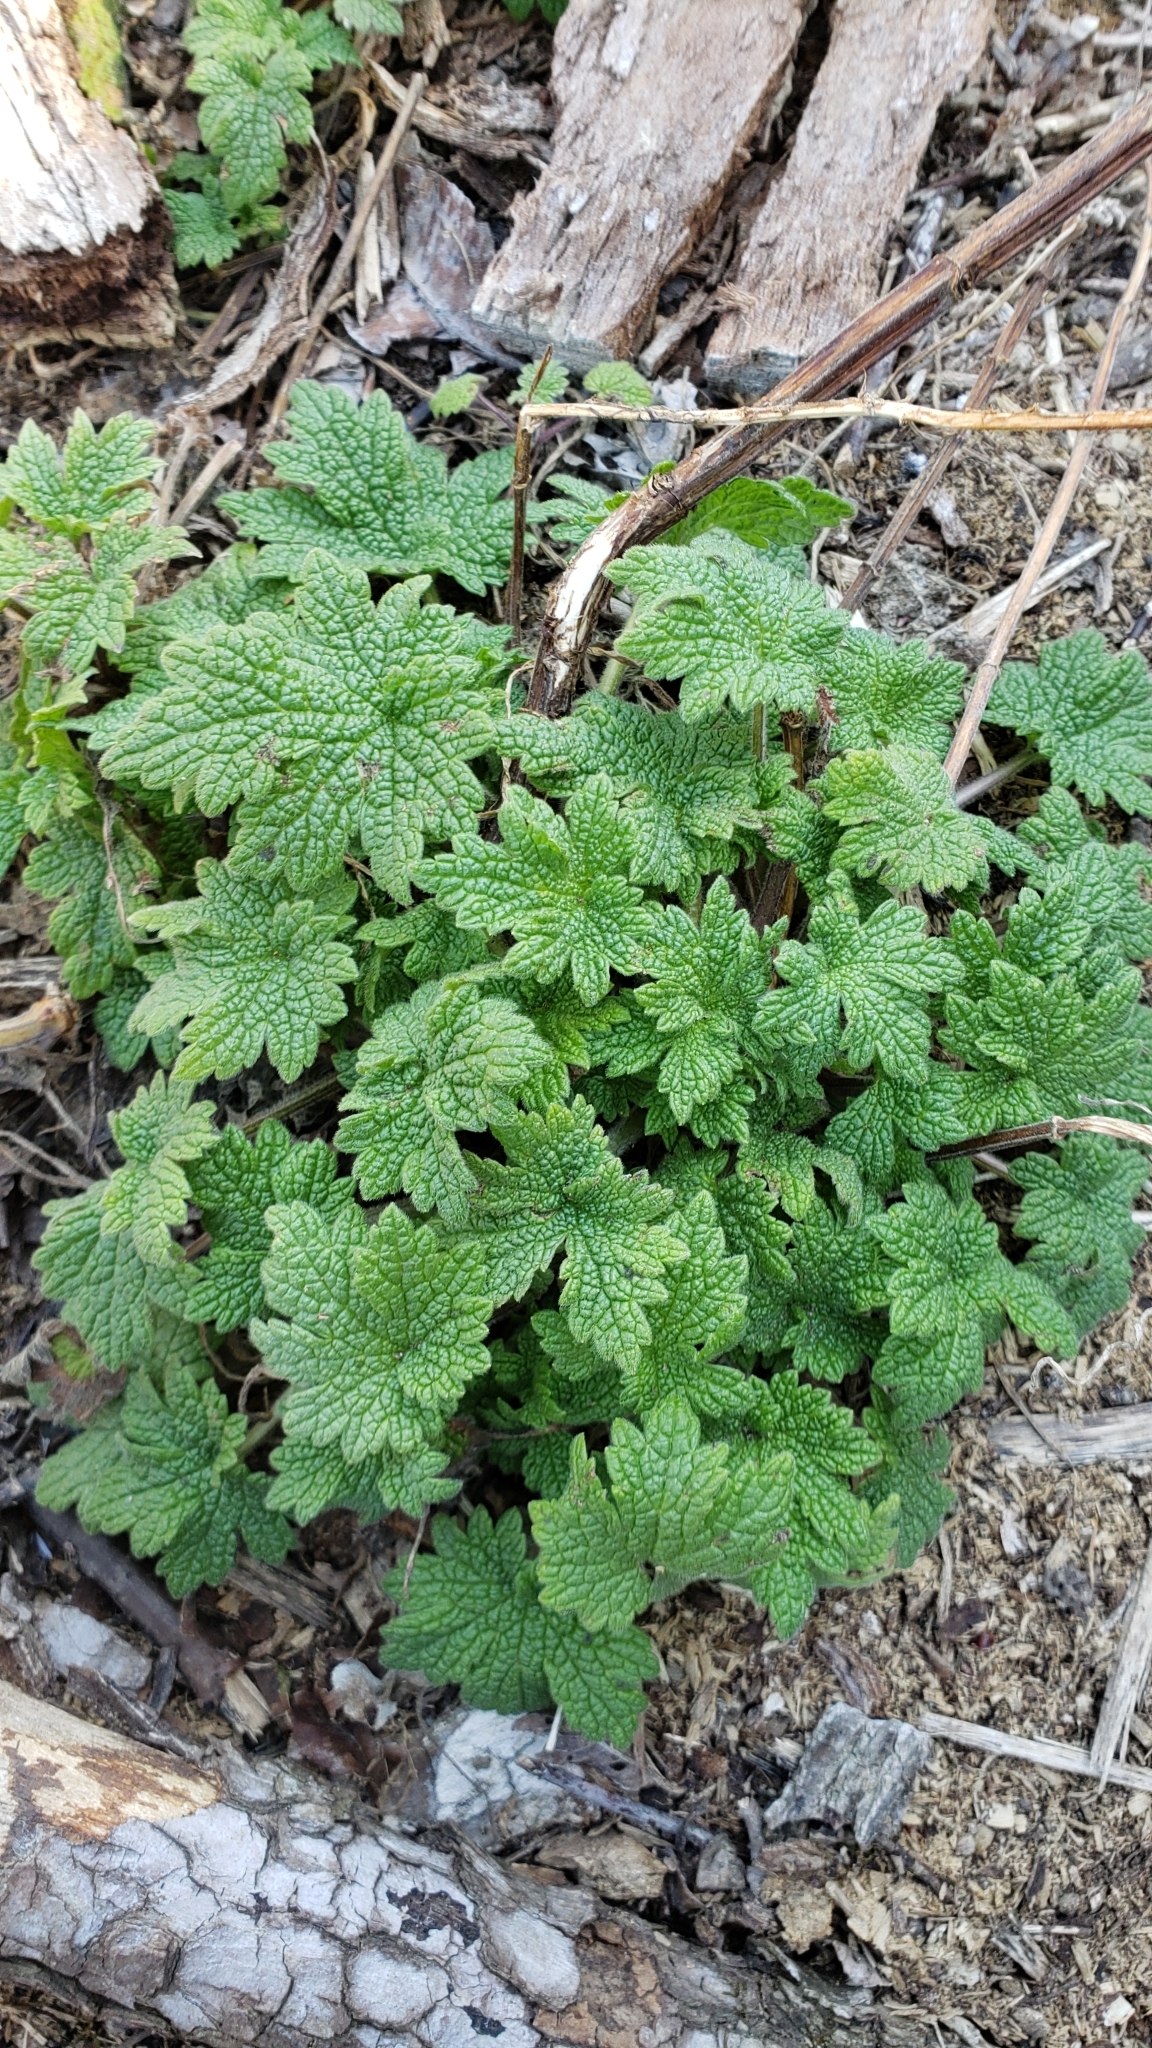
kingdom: Plantae
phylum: Tracheophyta
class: Magnoliopsida
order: Lamiales
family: Lamiaceae
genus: Leonurus
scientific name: Leonurus cardiaca
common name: Motherwort
